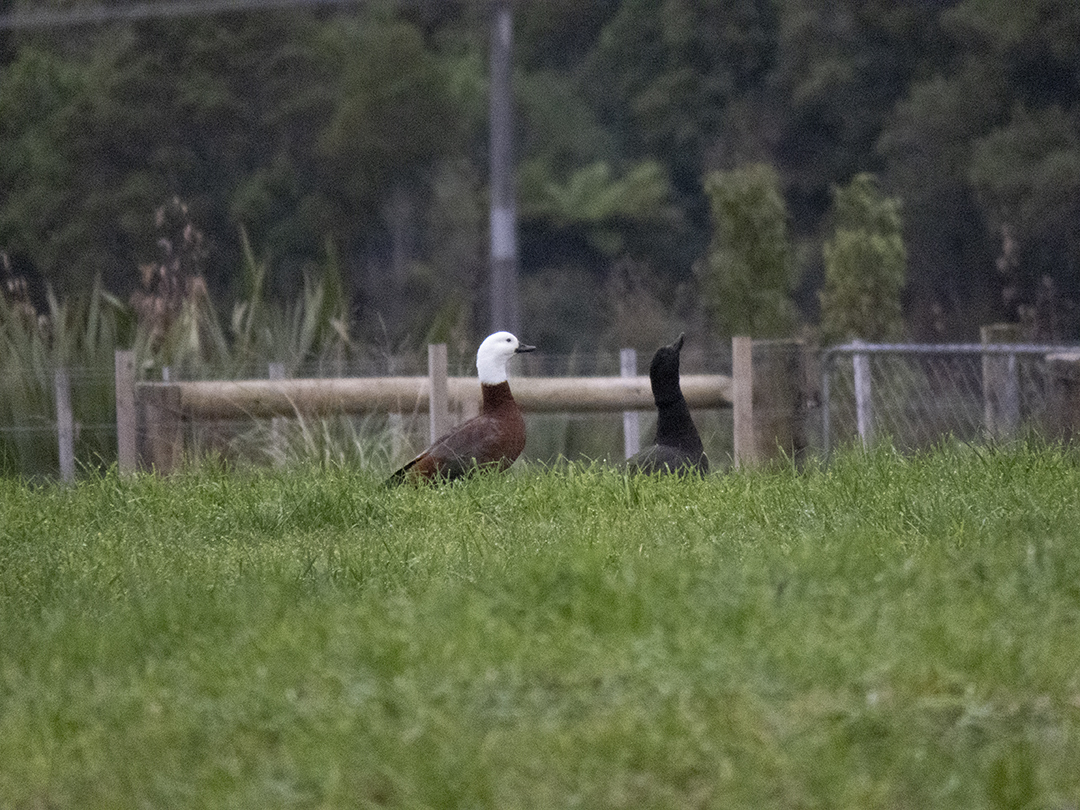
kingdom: Animalia
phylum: Chordata
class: Aves
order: Anseriformes
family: Anatidae
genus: Tadorna
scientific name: Tadorna variegata
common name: Paradise shelduck
